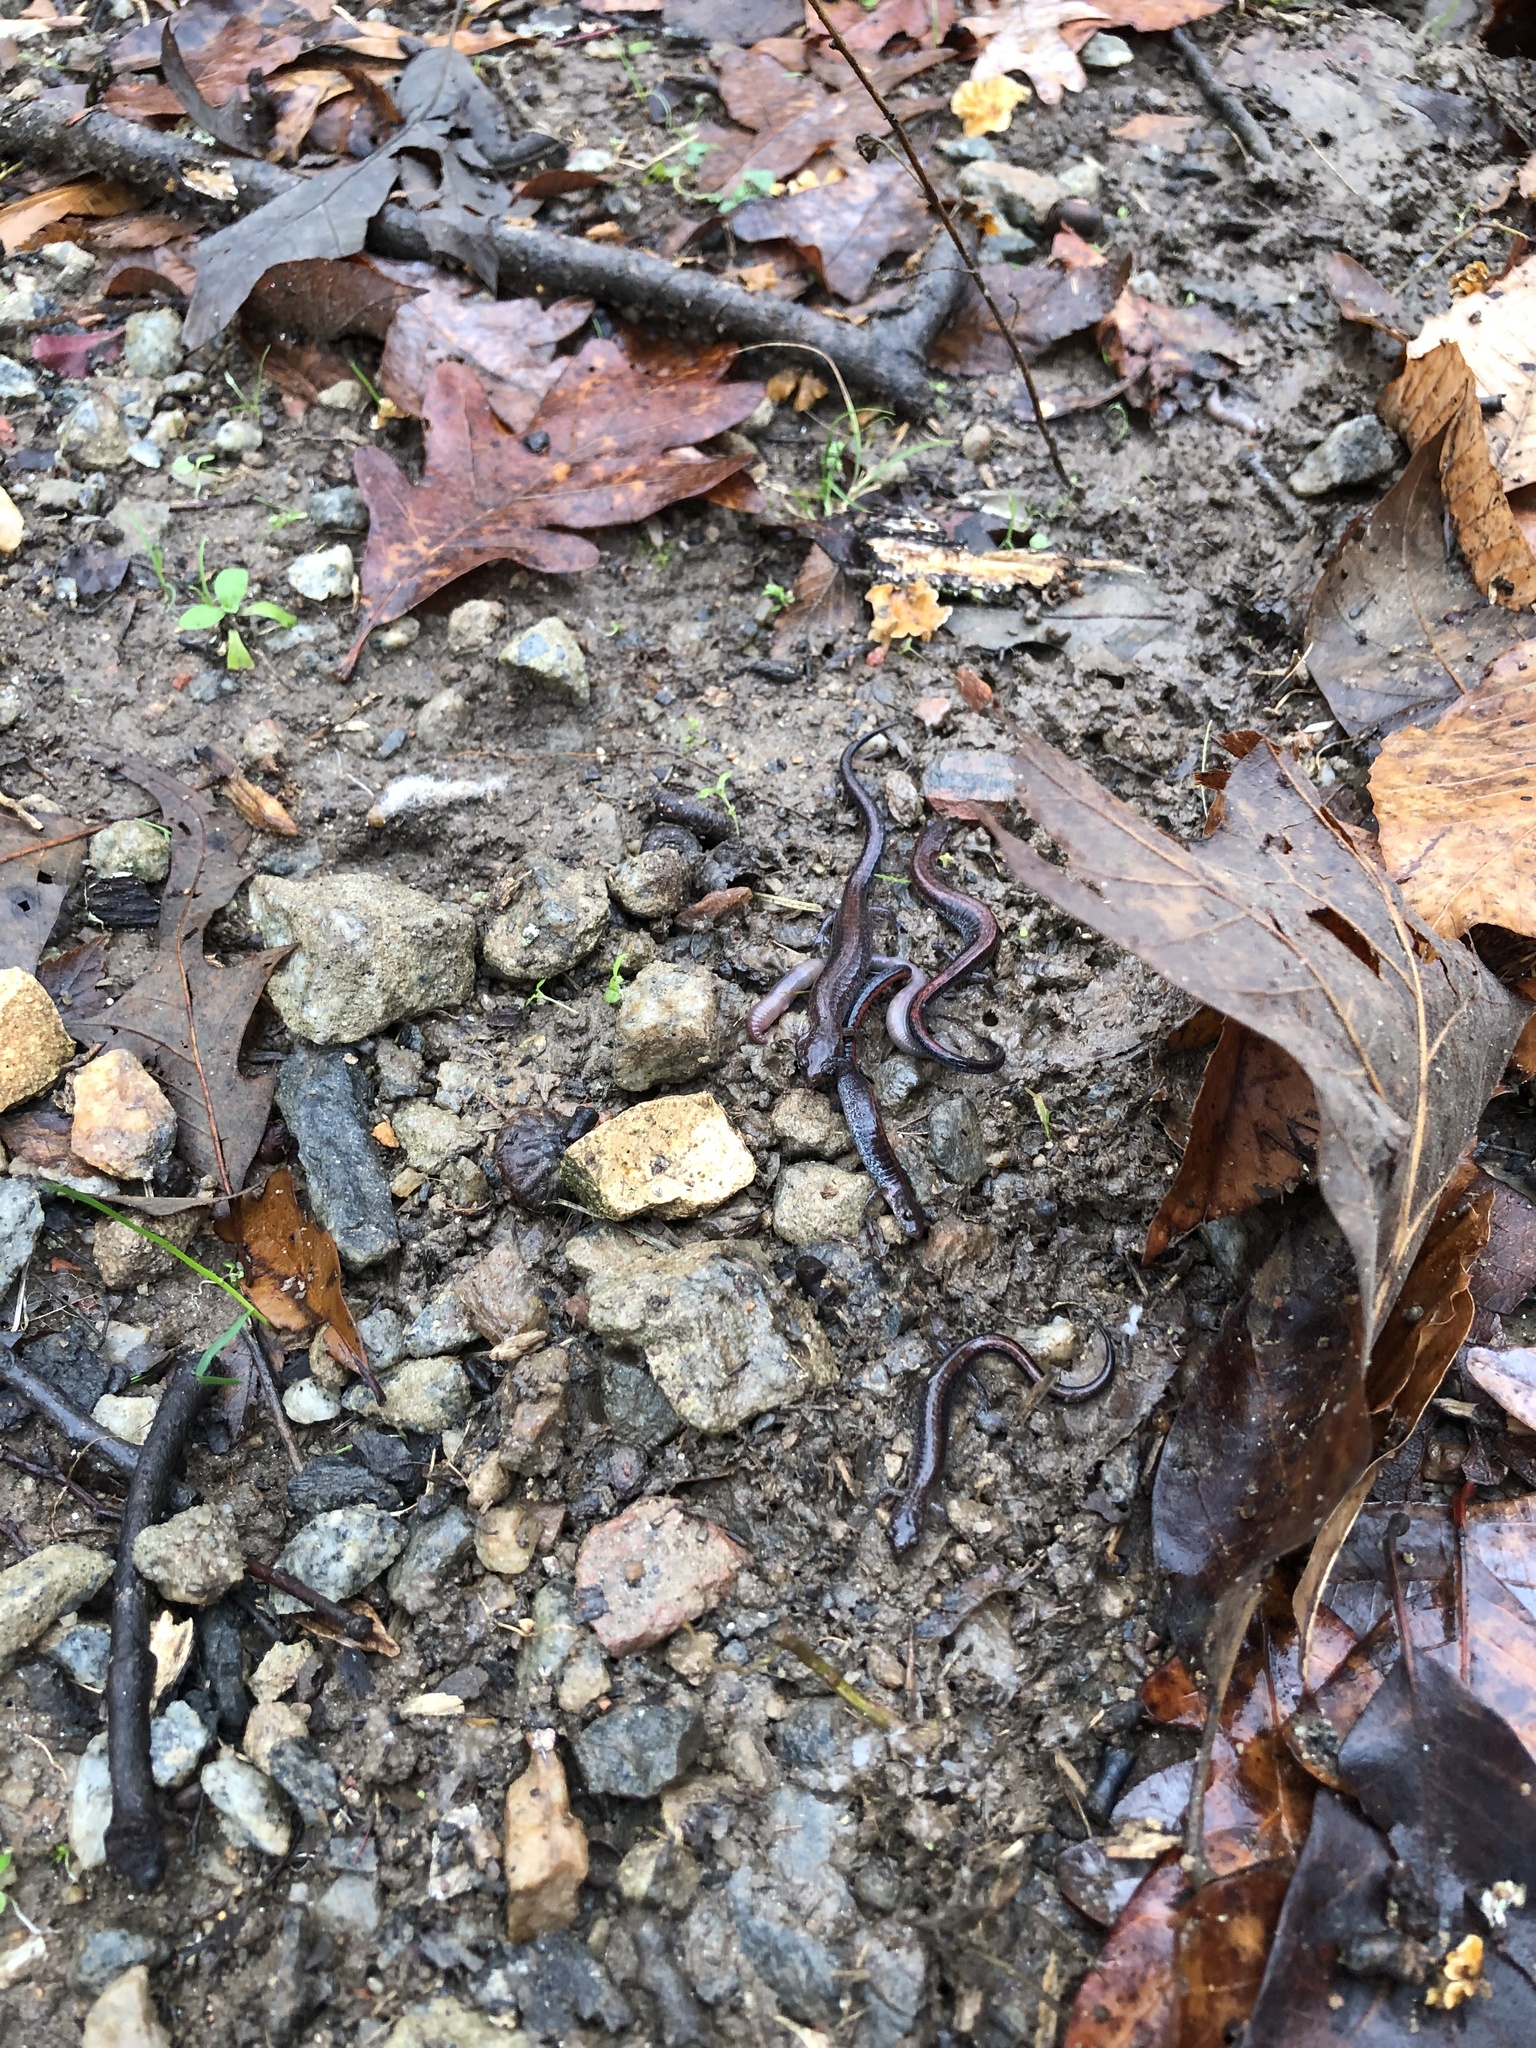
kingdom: Animalia
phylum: Chordata
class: Amphibia
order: Caudata
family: Plethodontidae
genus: Plethodon
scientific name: Plethodon serratus
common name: Southern red-backed salamander
